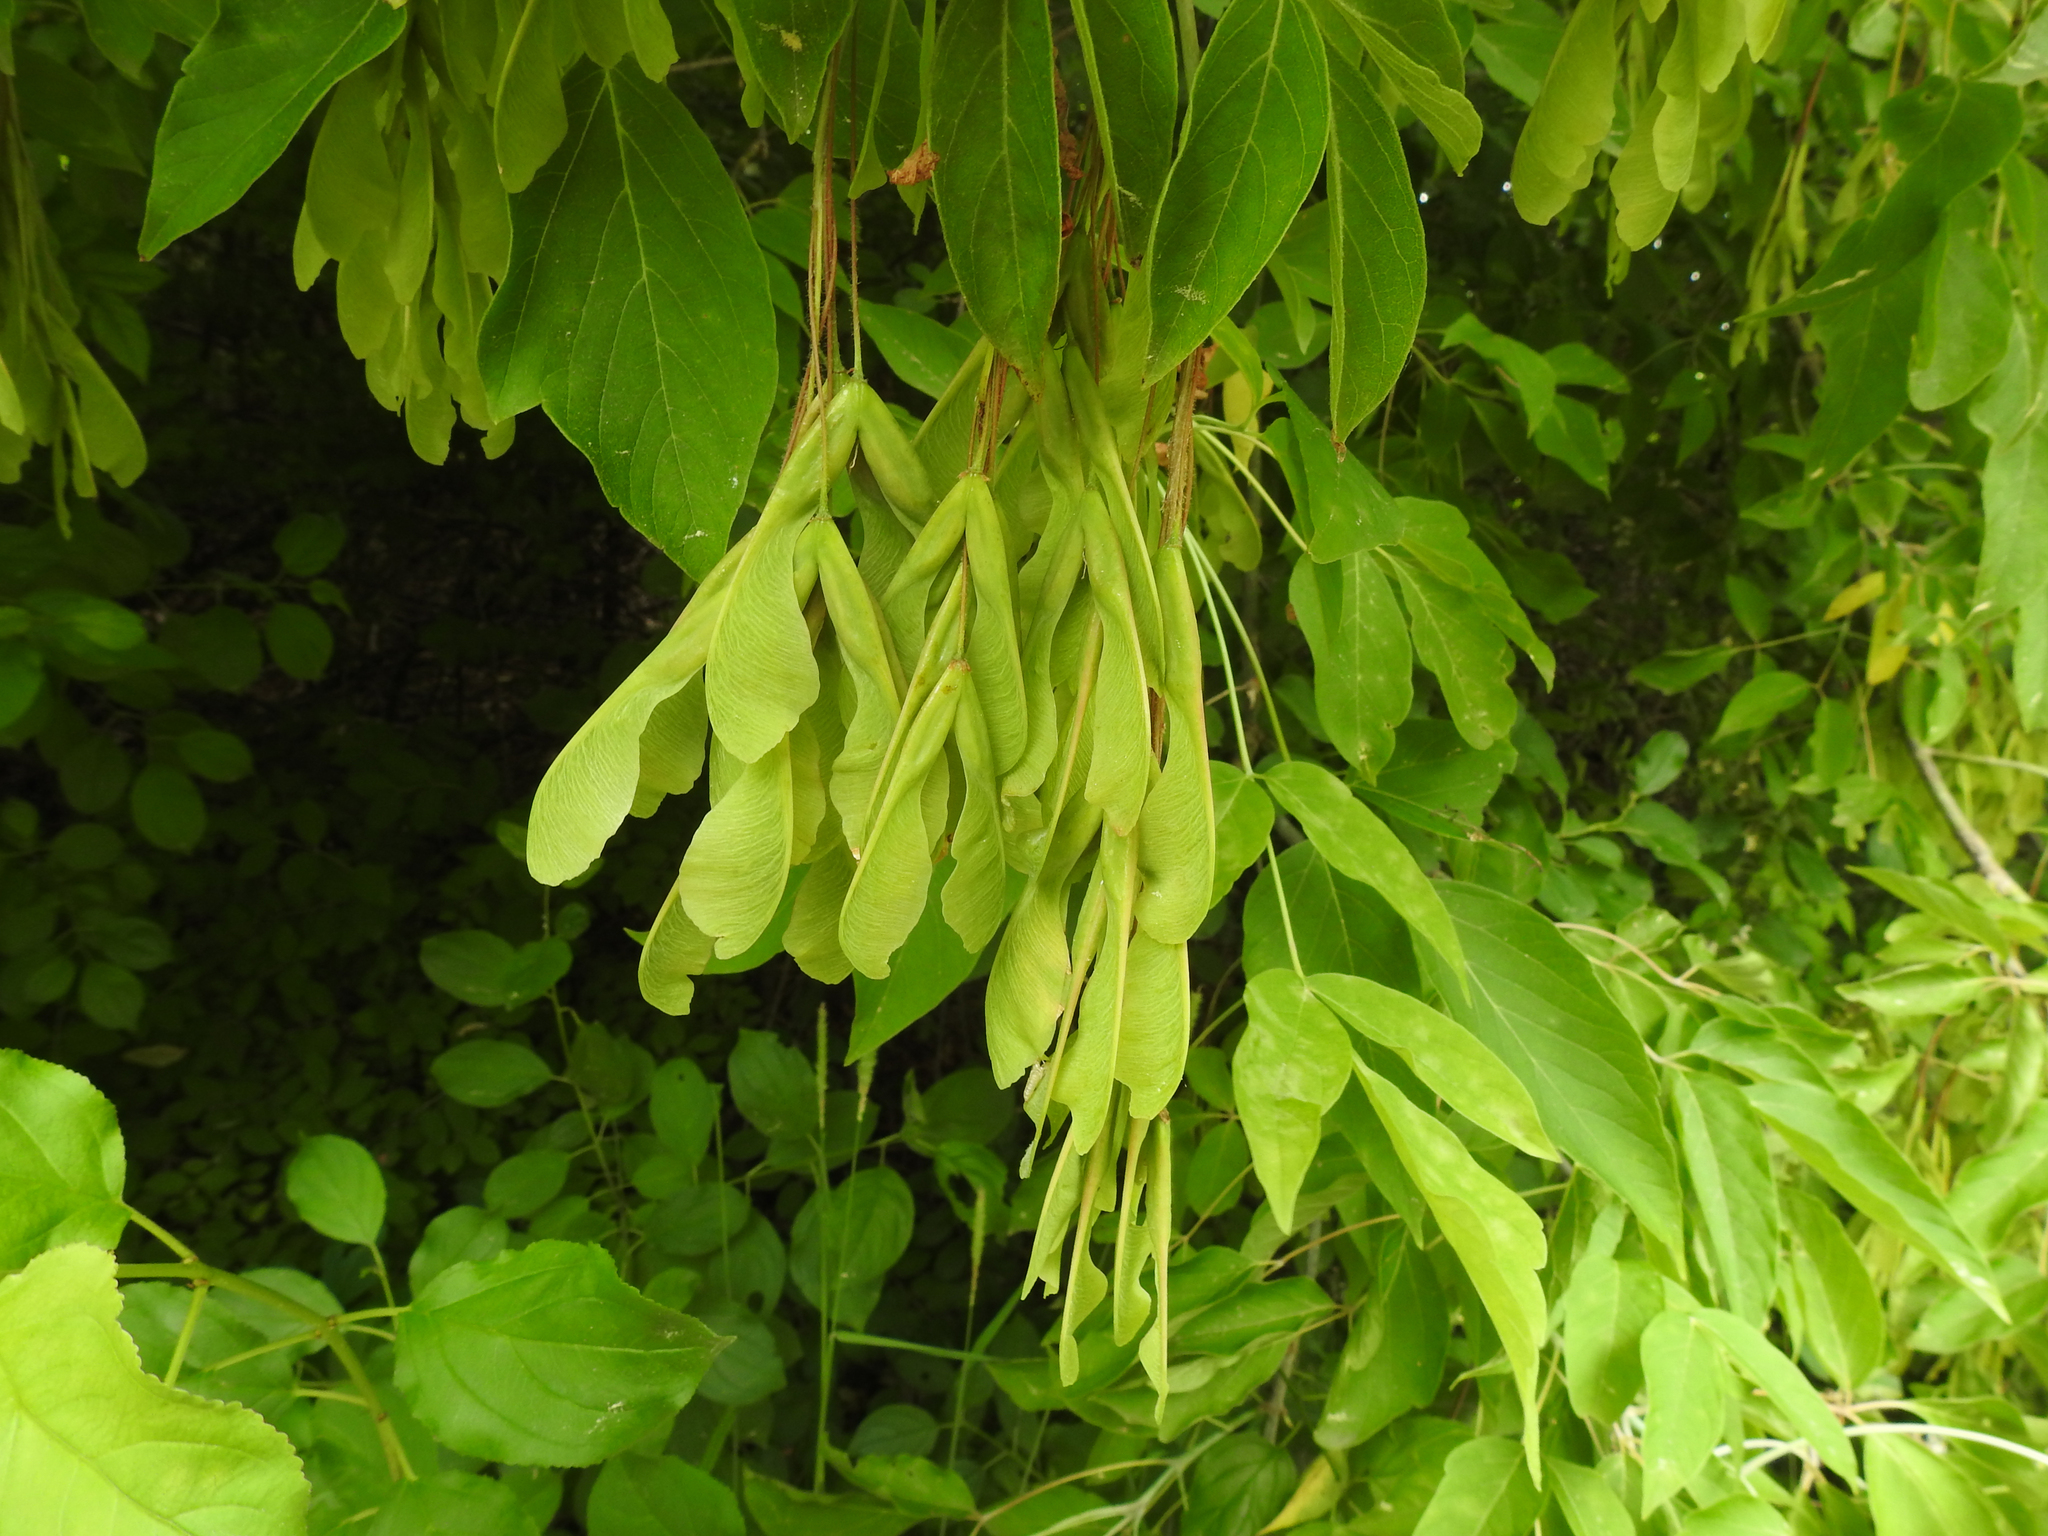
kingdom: Plantae
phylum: Tracheophyta
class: Magnoliopsida
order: Sapindales
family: Sapindaceae
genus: Acer
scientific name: Acer negundo
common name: Ashleaf maple
